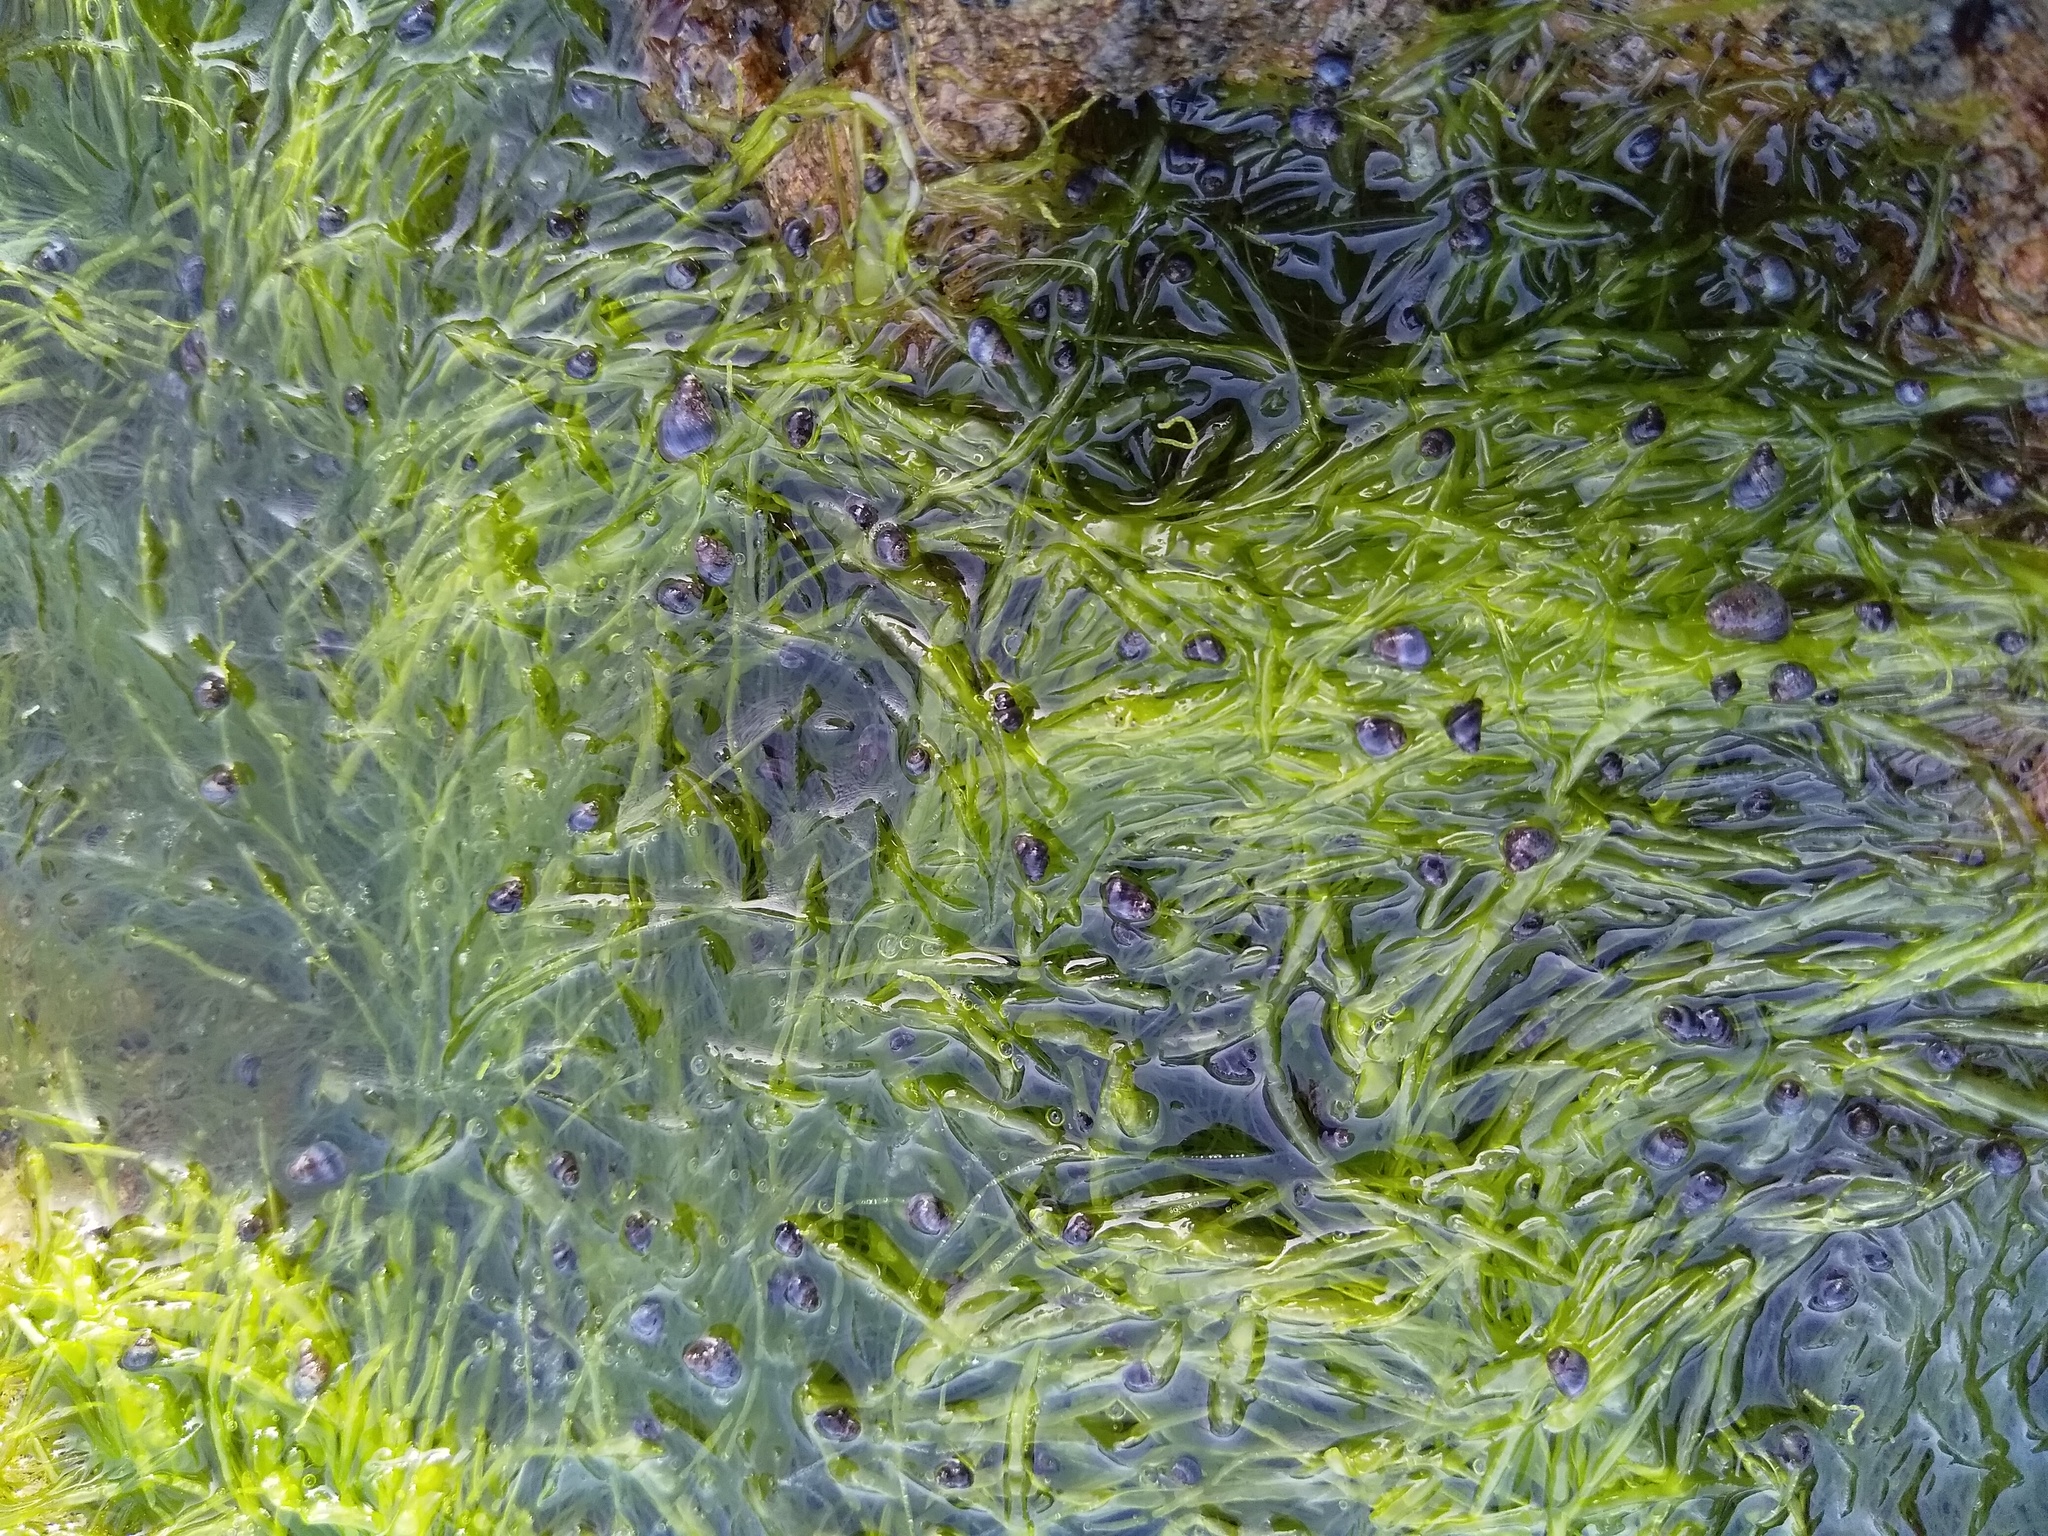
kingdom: Animalia
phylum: Mollusca
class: Gastropoda
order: Littorinimorpha
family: Littorinidae
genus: Austrolittorina
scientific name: Austrolittorina antipodum
